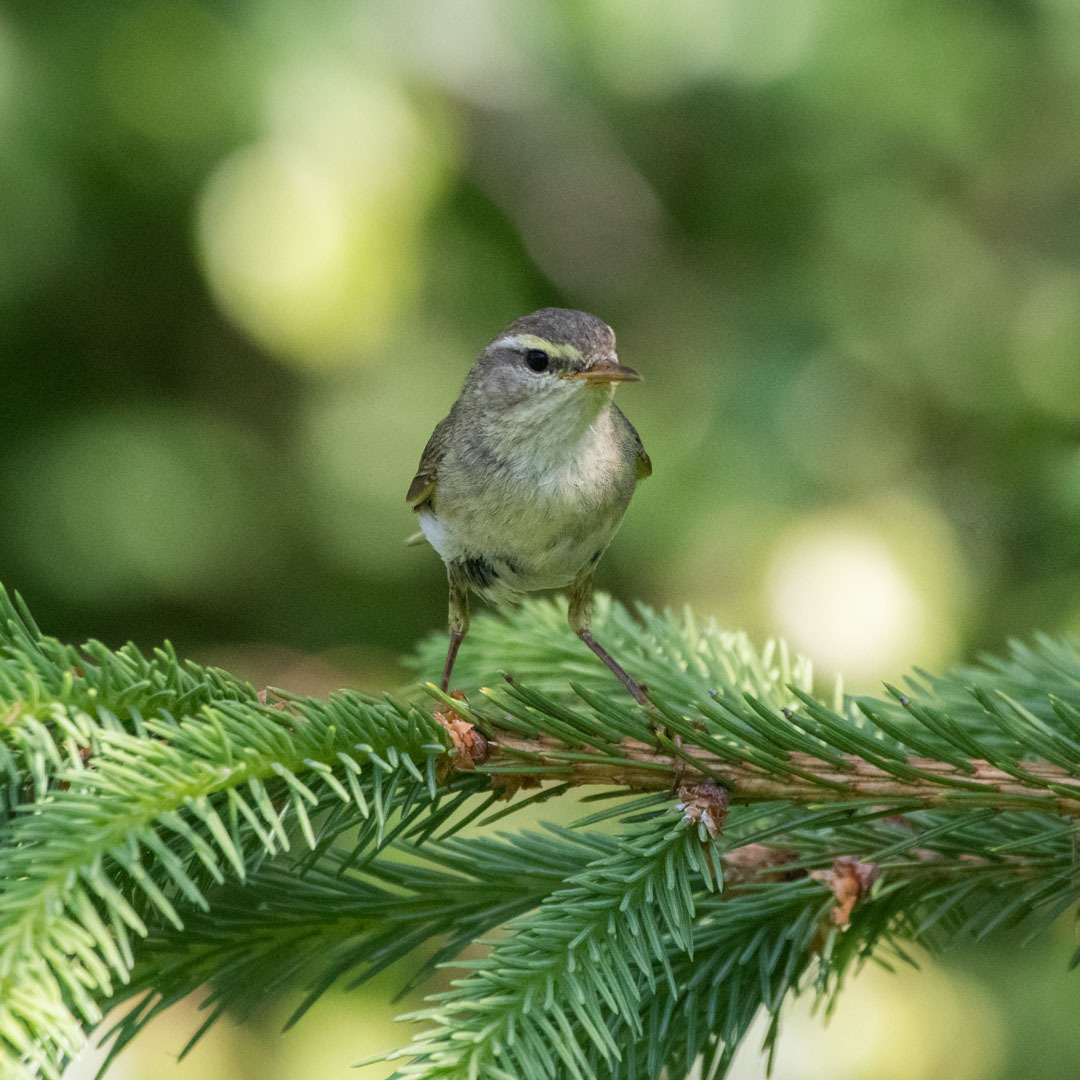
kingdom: Animalia
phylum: Chordata
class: Aves
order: Passeriformes
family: Phylloscopidae
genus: Phylloscopus
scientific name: Phylloscopus trochilus
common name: Willow warbler
